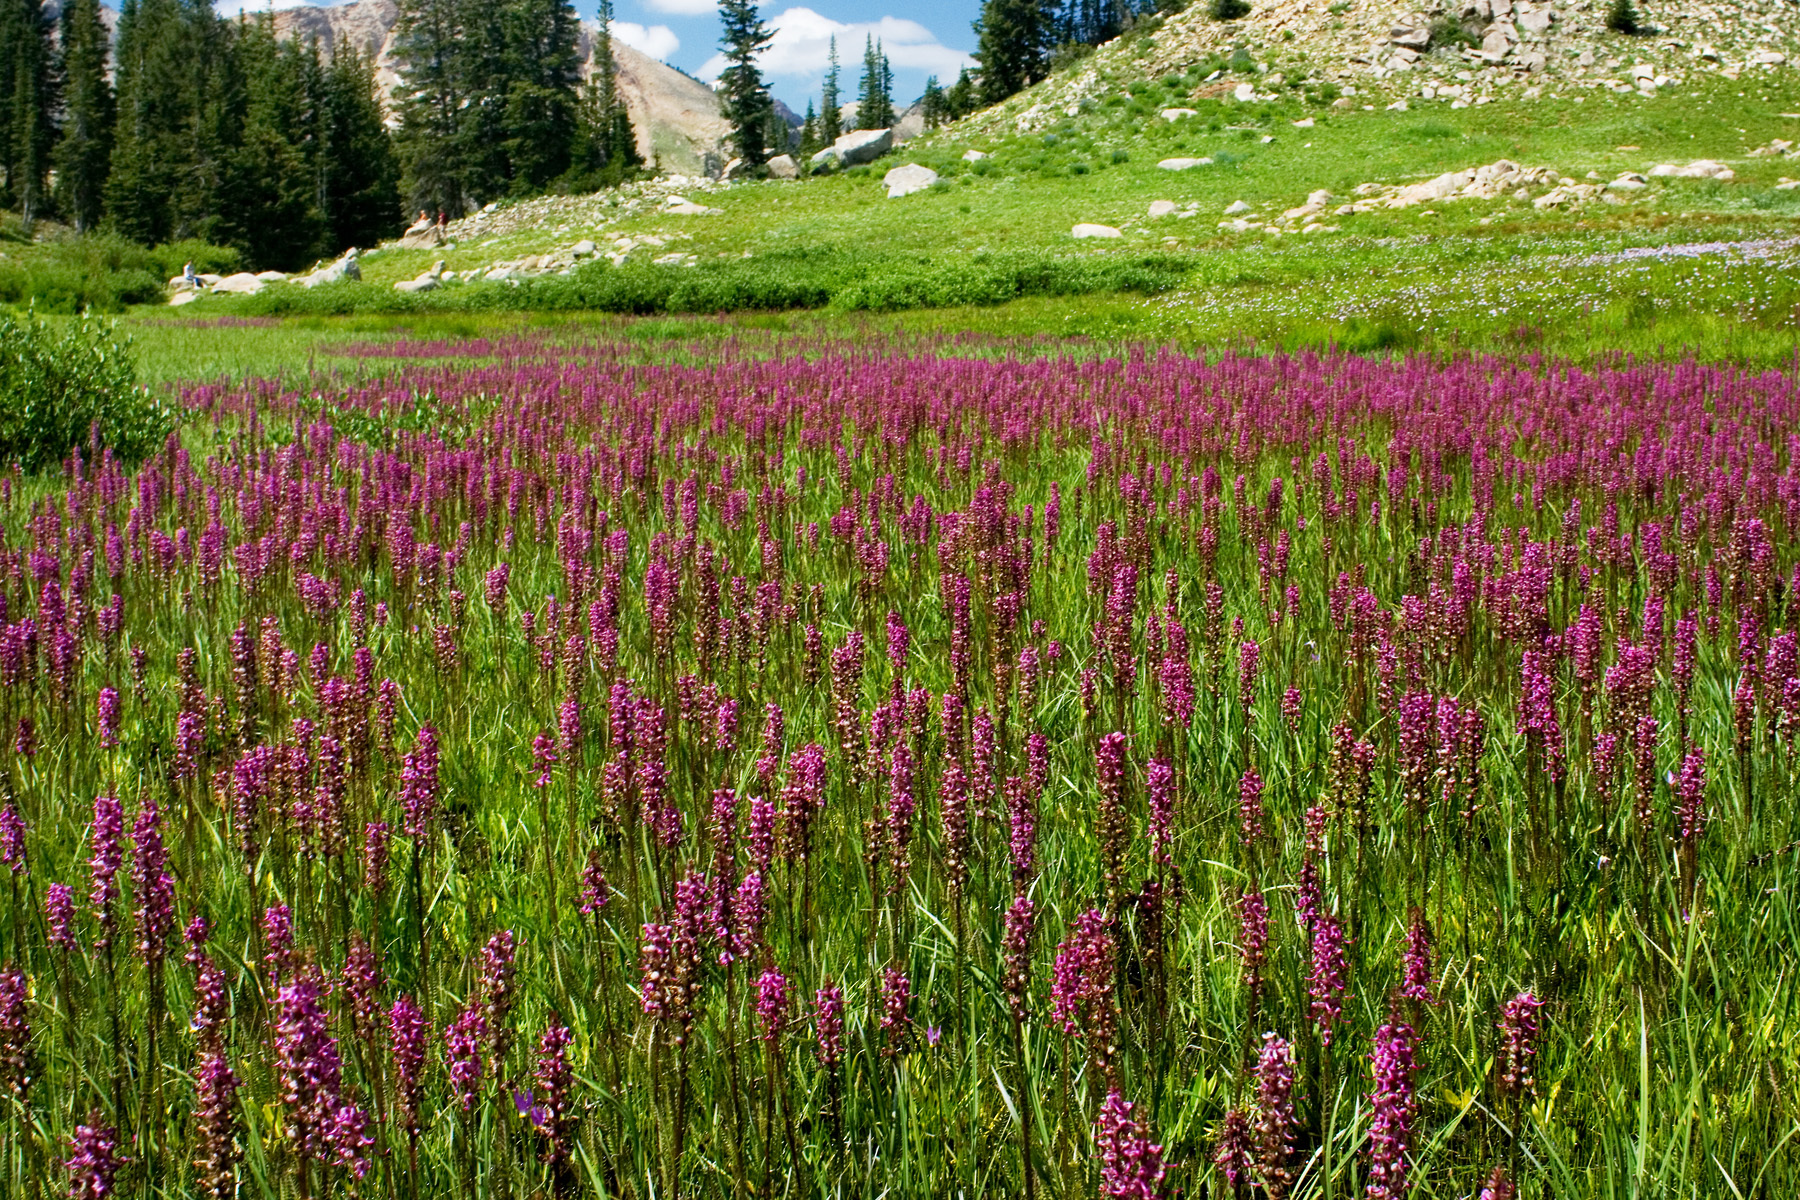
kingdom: Plantae
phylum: Tracheophyta
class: Magnoliopsida
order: Lamiales
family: Orobanchaceae
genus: Pedicularis
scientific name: Pedicularis groenlandica
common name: Elephant's-head
